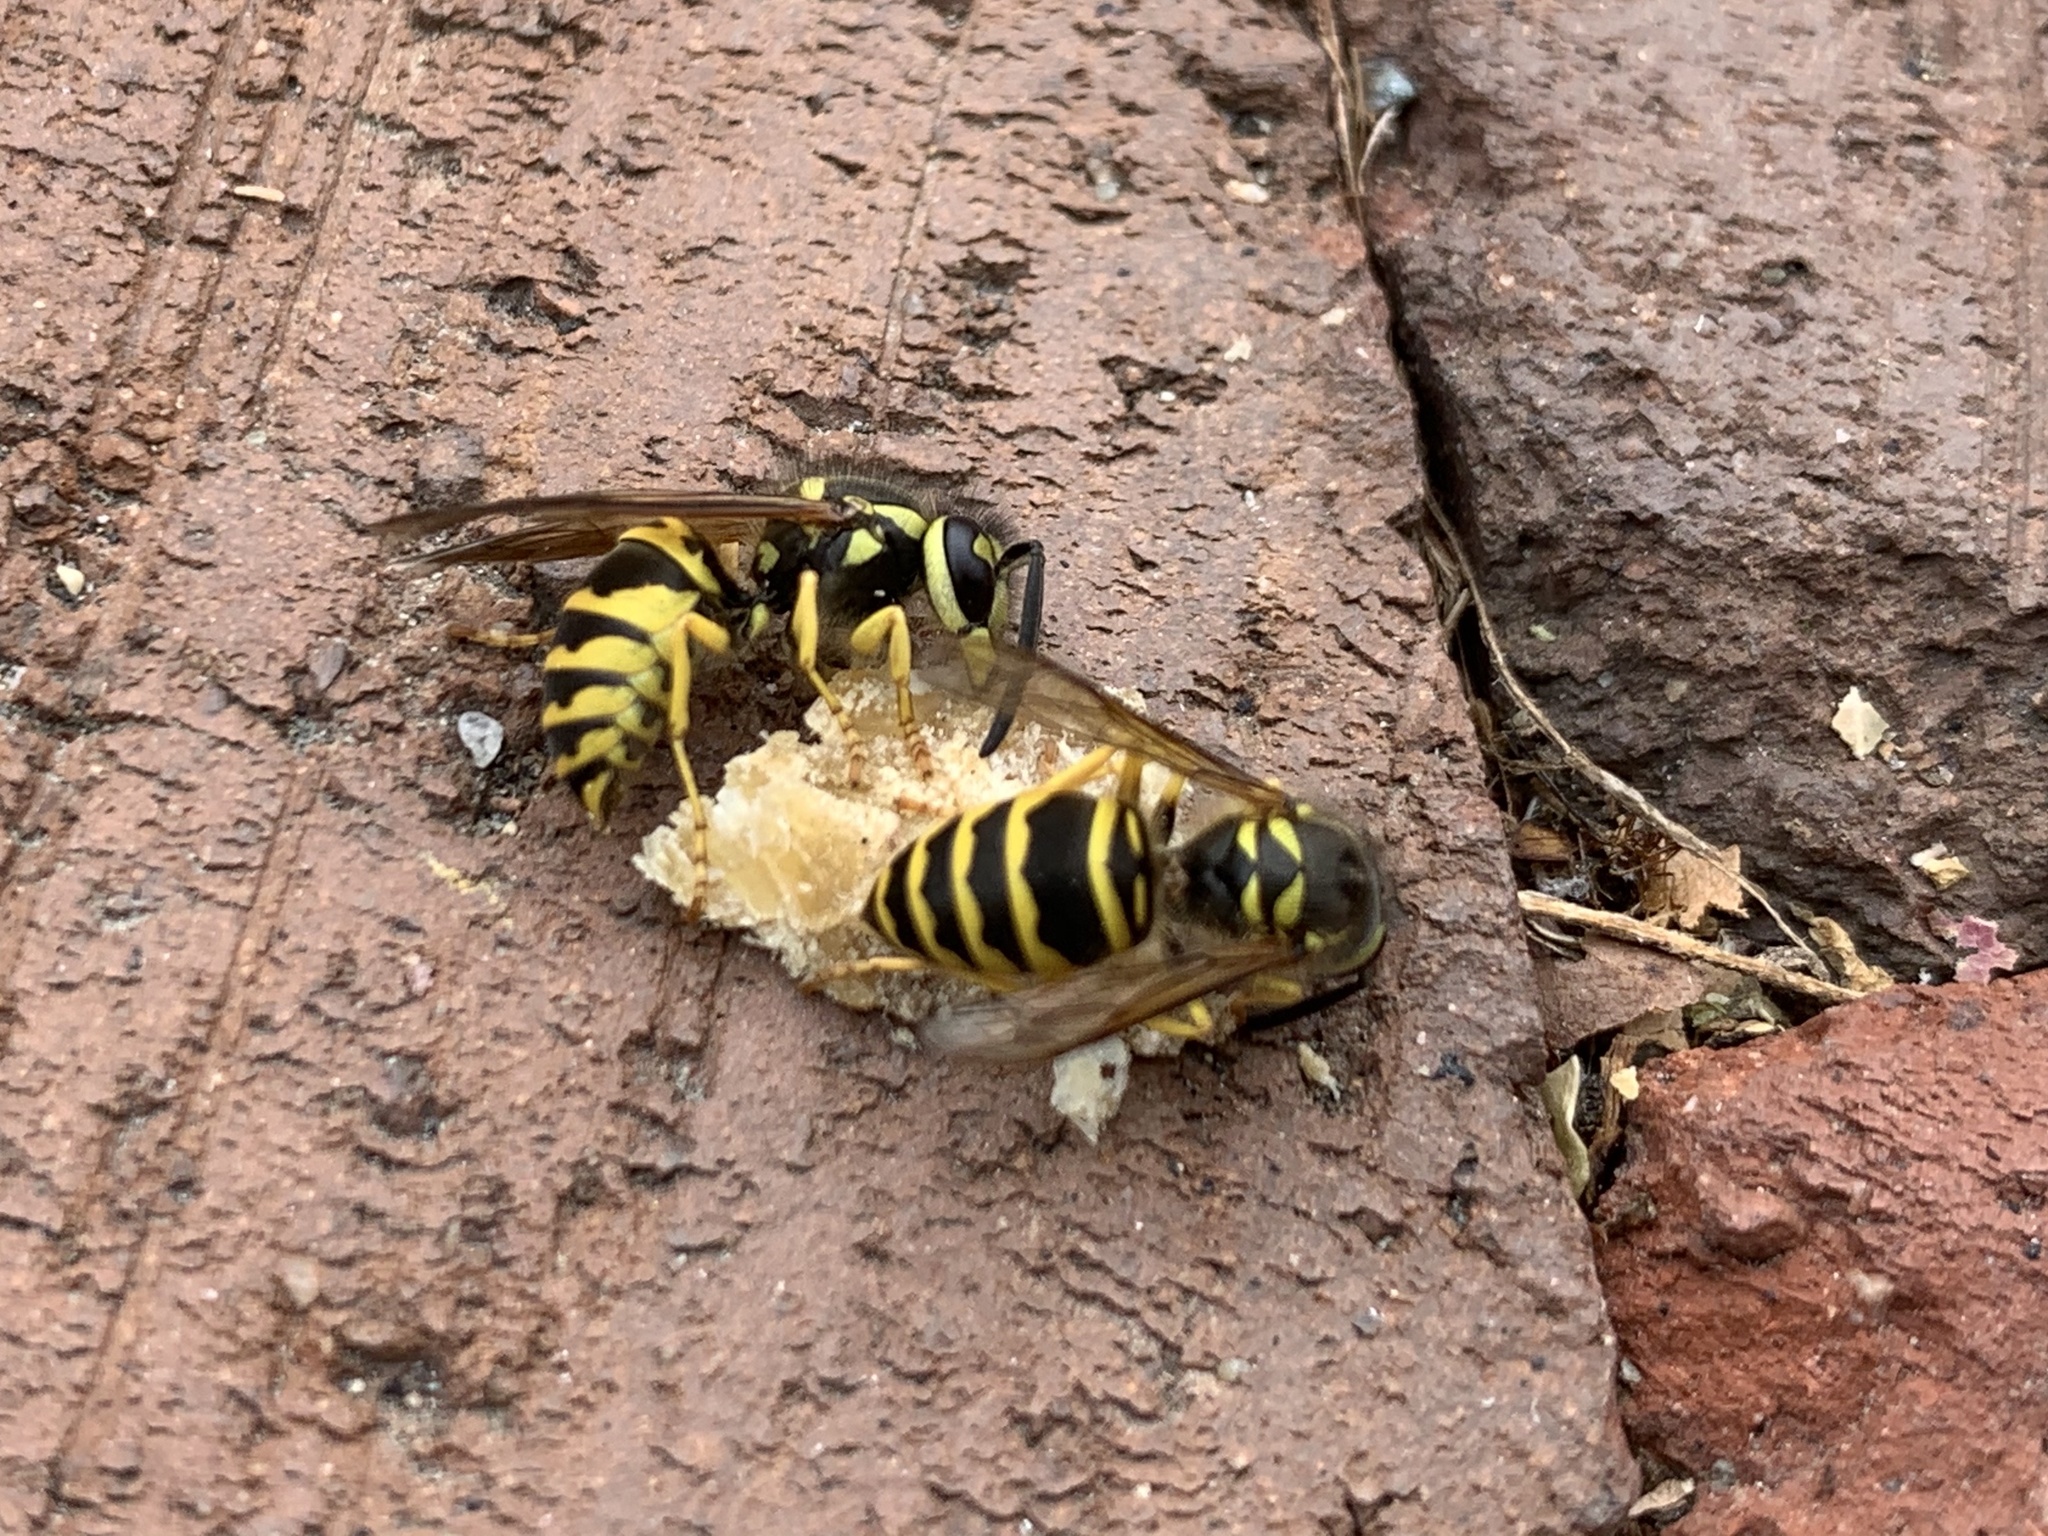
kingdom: Animalia
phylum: Arthropoda
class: Insecta
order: Hymenoptera
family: Vespidae
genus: Vespula
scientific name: Vespula maculifrons
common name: Eastern yellowjacket
